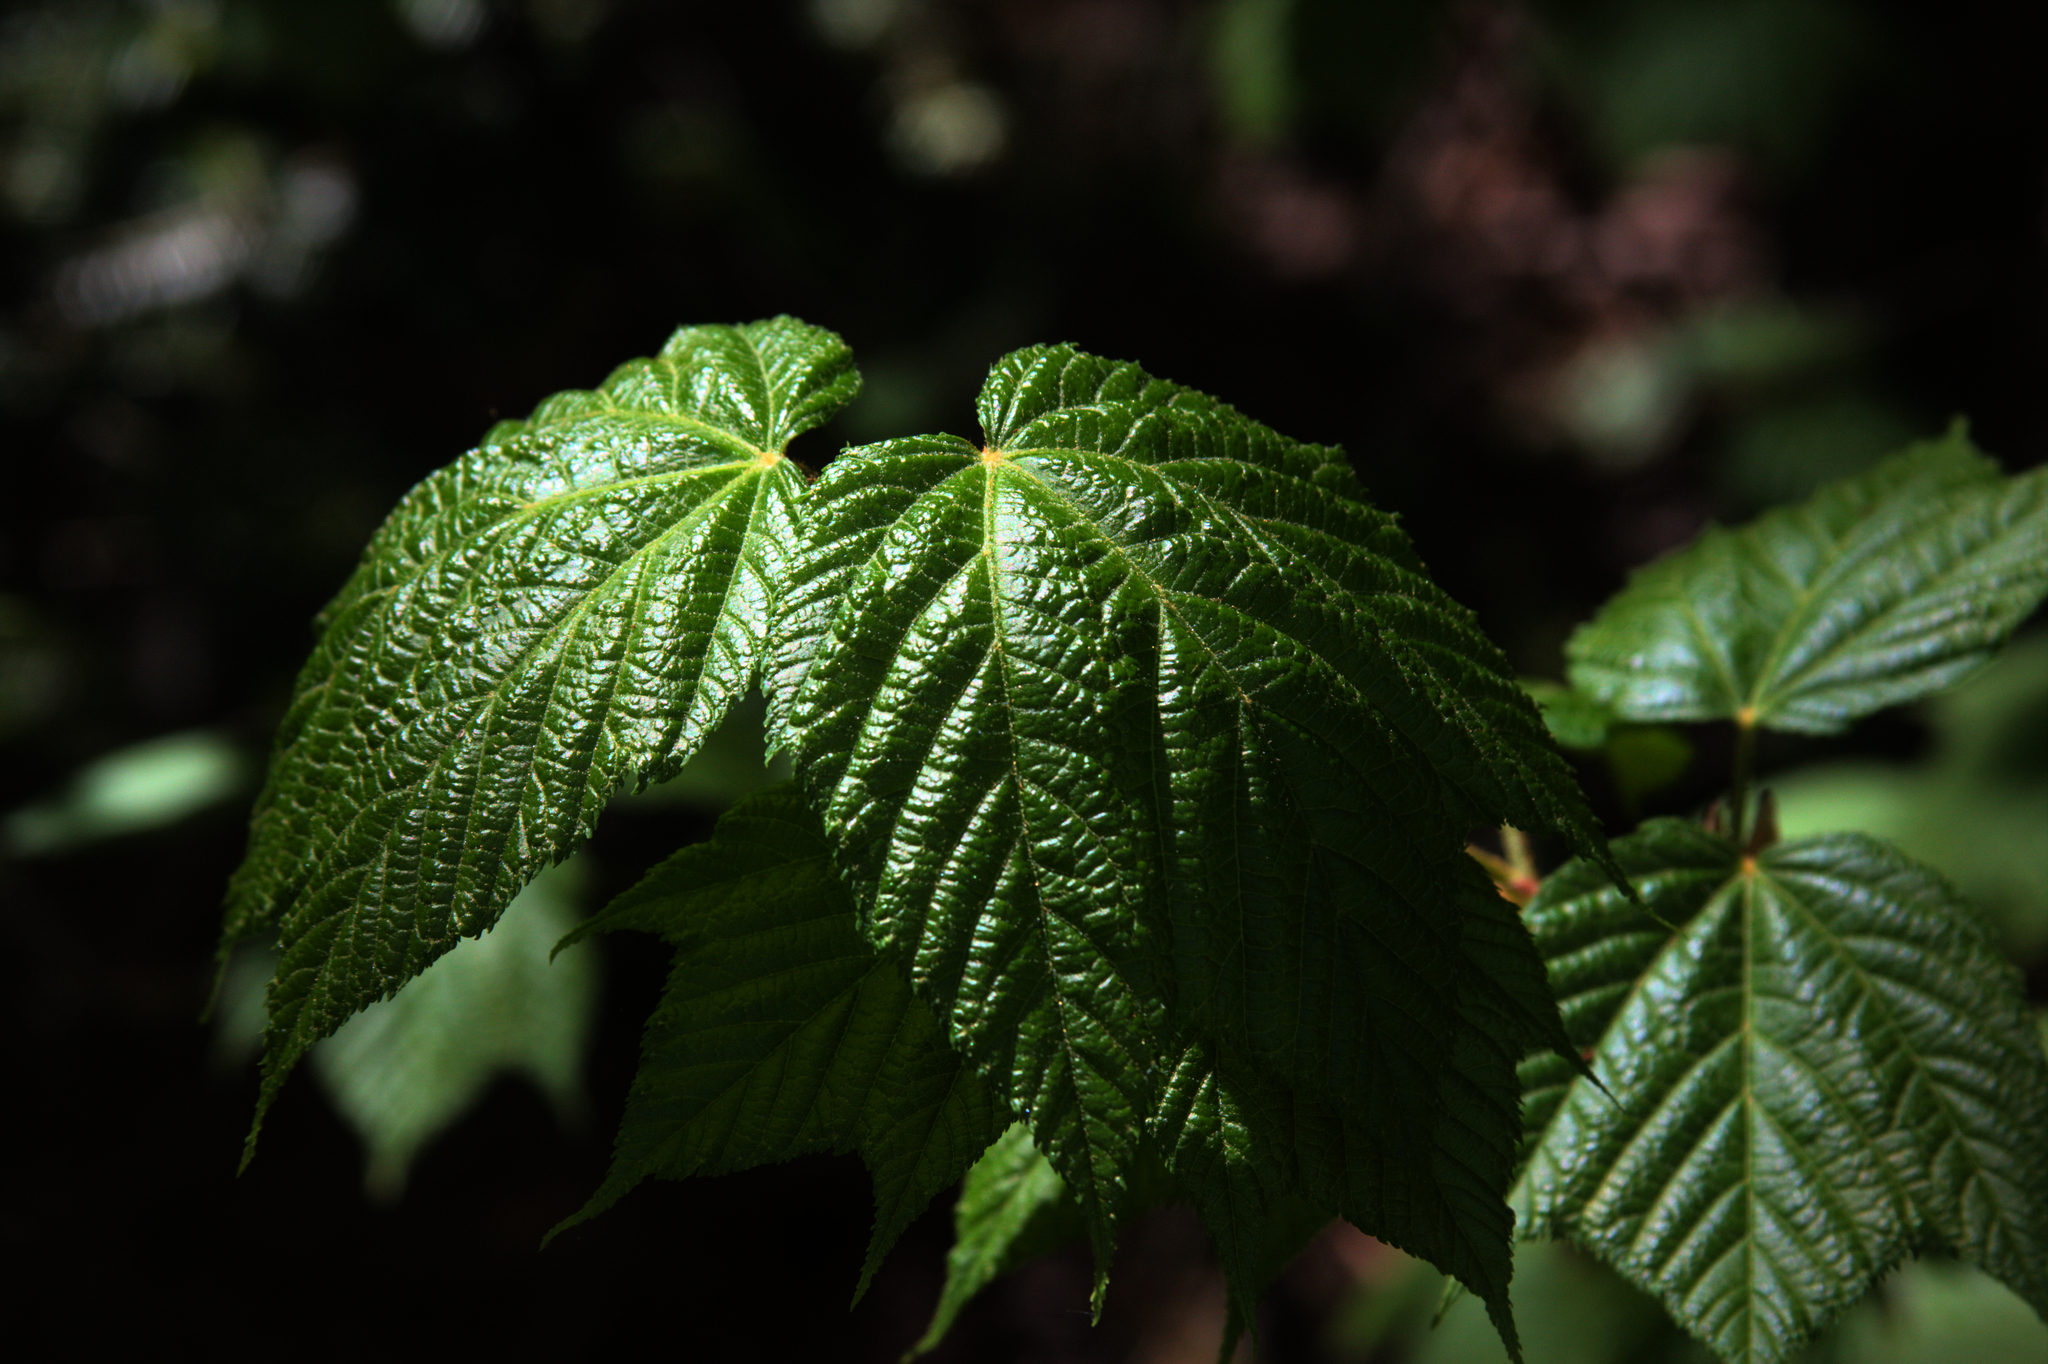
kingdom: Plantae
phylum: Tracheophyta
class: Magnoliopsida
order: Sapindales
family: Sapindaceae
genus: Acer
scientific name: Acer pensylvanicum
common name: Moosewood
